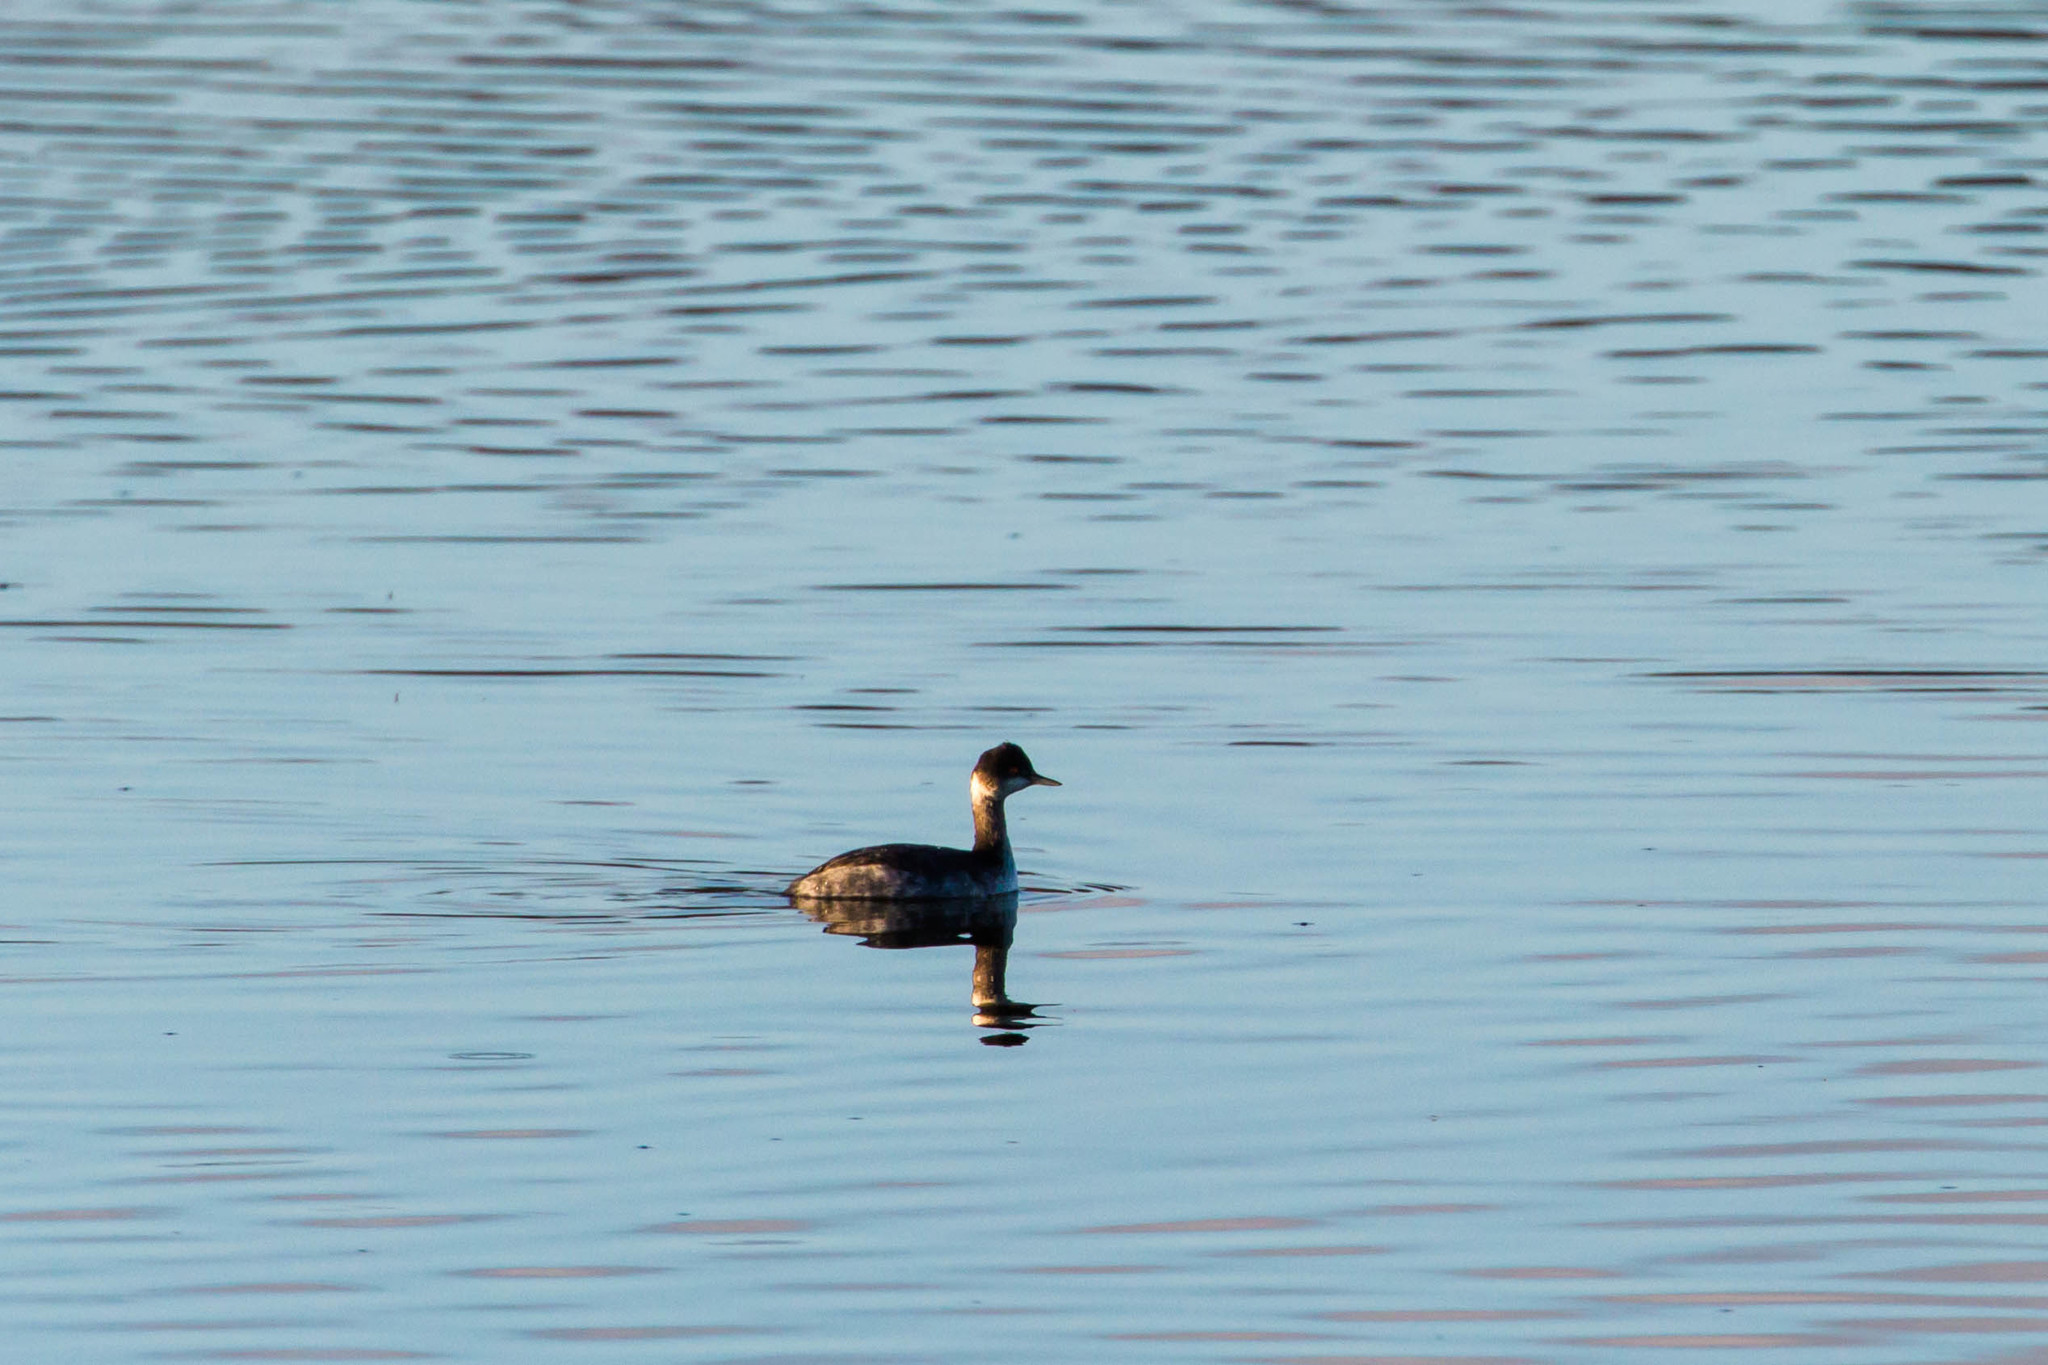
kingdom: Animalia
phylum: Chordata
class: Aves
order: Podicipediformes
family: Podicipedidae
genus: Podiceps
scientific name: Podiceps nigricollis
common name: Black-necked grebe
